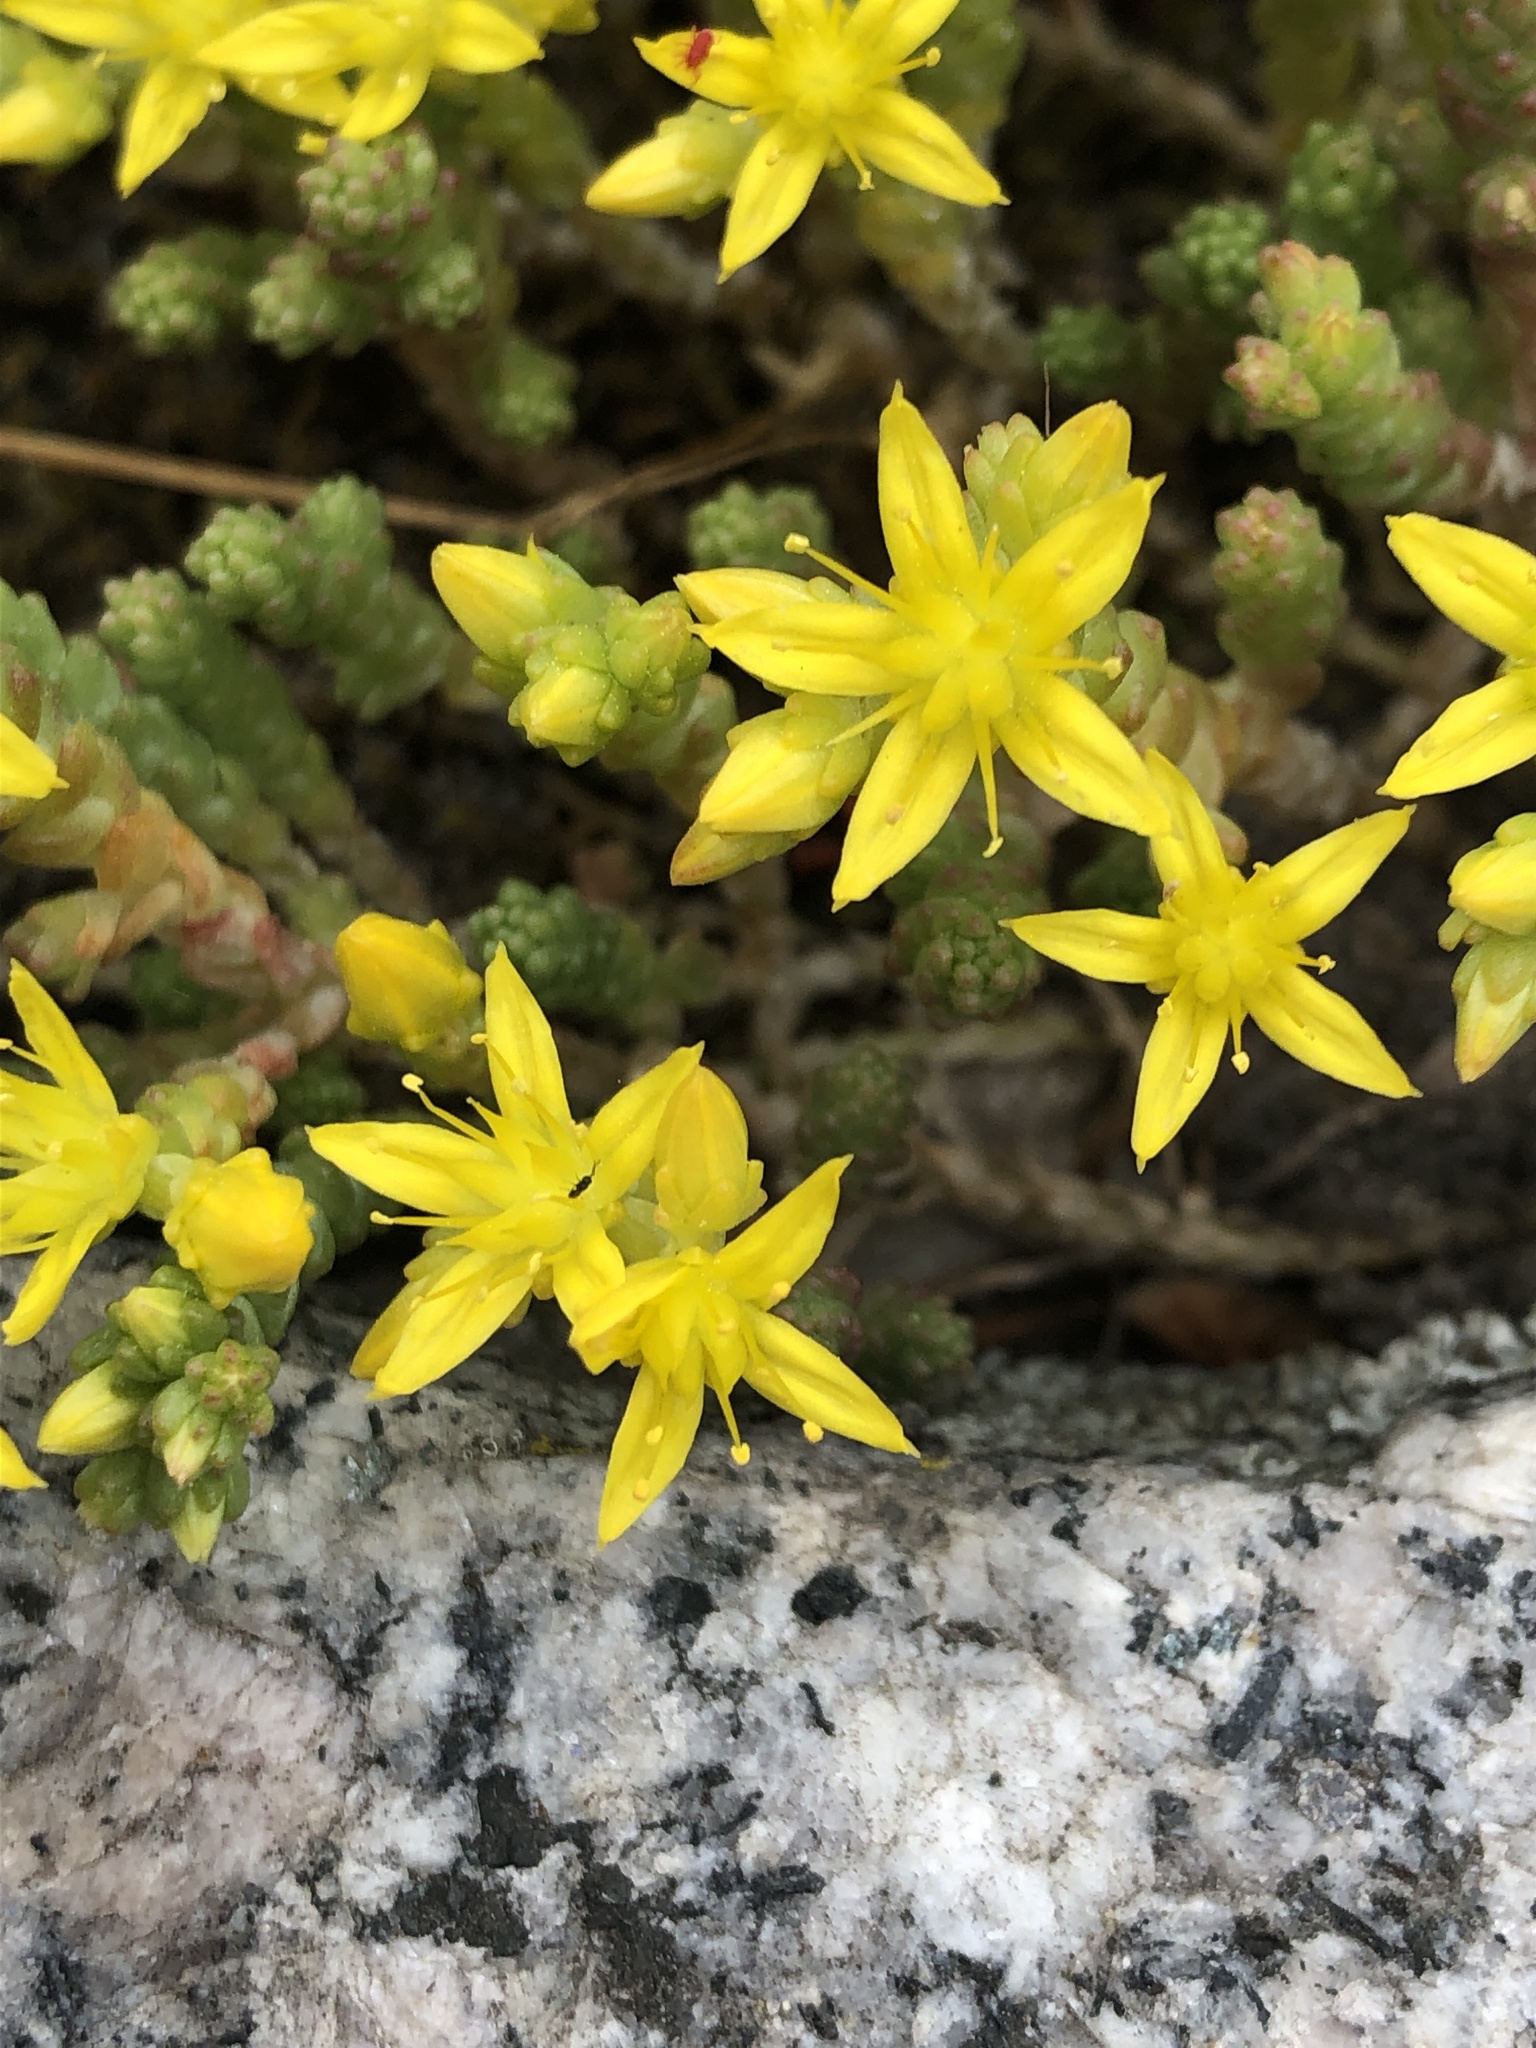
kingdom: Plantae
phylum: Tracheophyta
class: Magnoliopsida
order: Saxifragales
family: Crassulaceae
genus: Sedum
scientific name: Sedum acre
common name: Biting stonecrop
